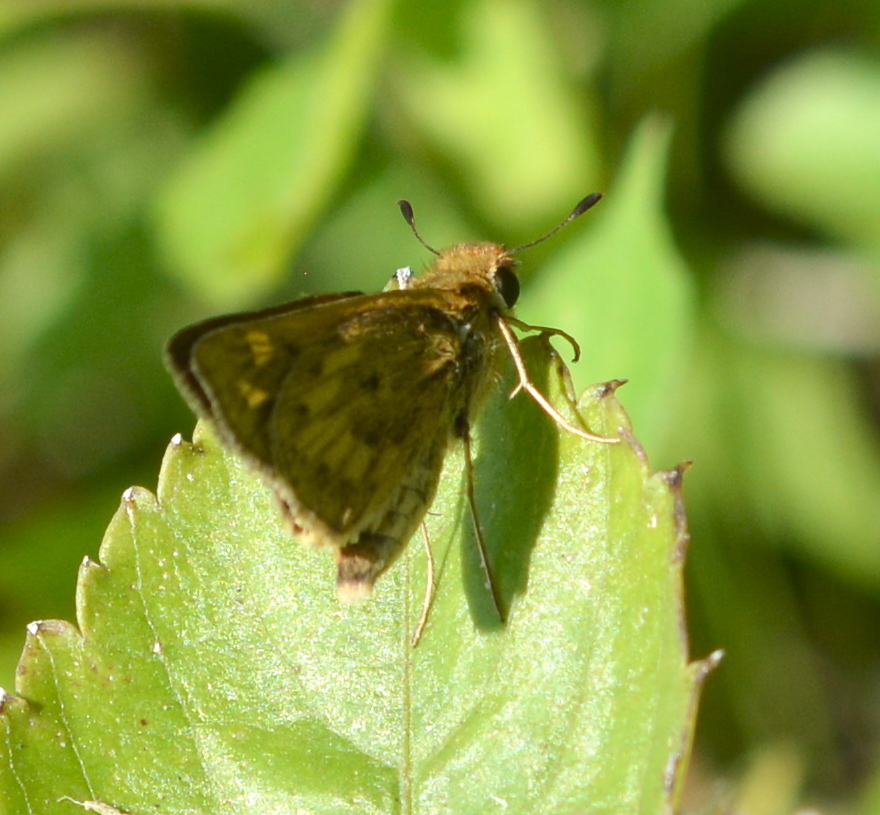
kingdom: Animalia
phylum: Arthropoda
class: Insecta
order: Lepidoptera
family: Hesperiidae
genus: Hylephila
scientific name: Hylephila phyleus
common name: Fiery skipper
